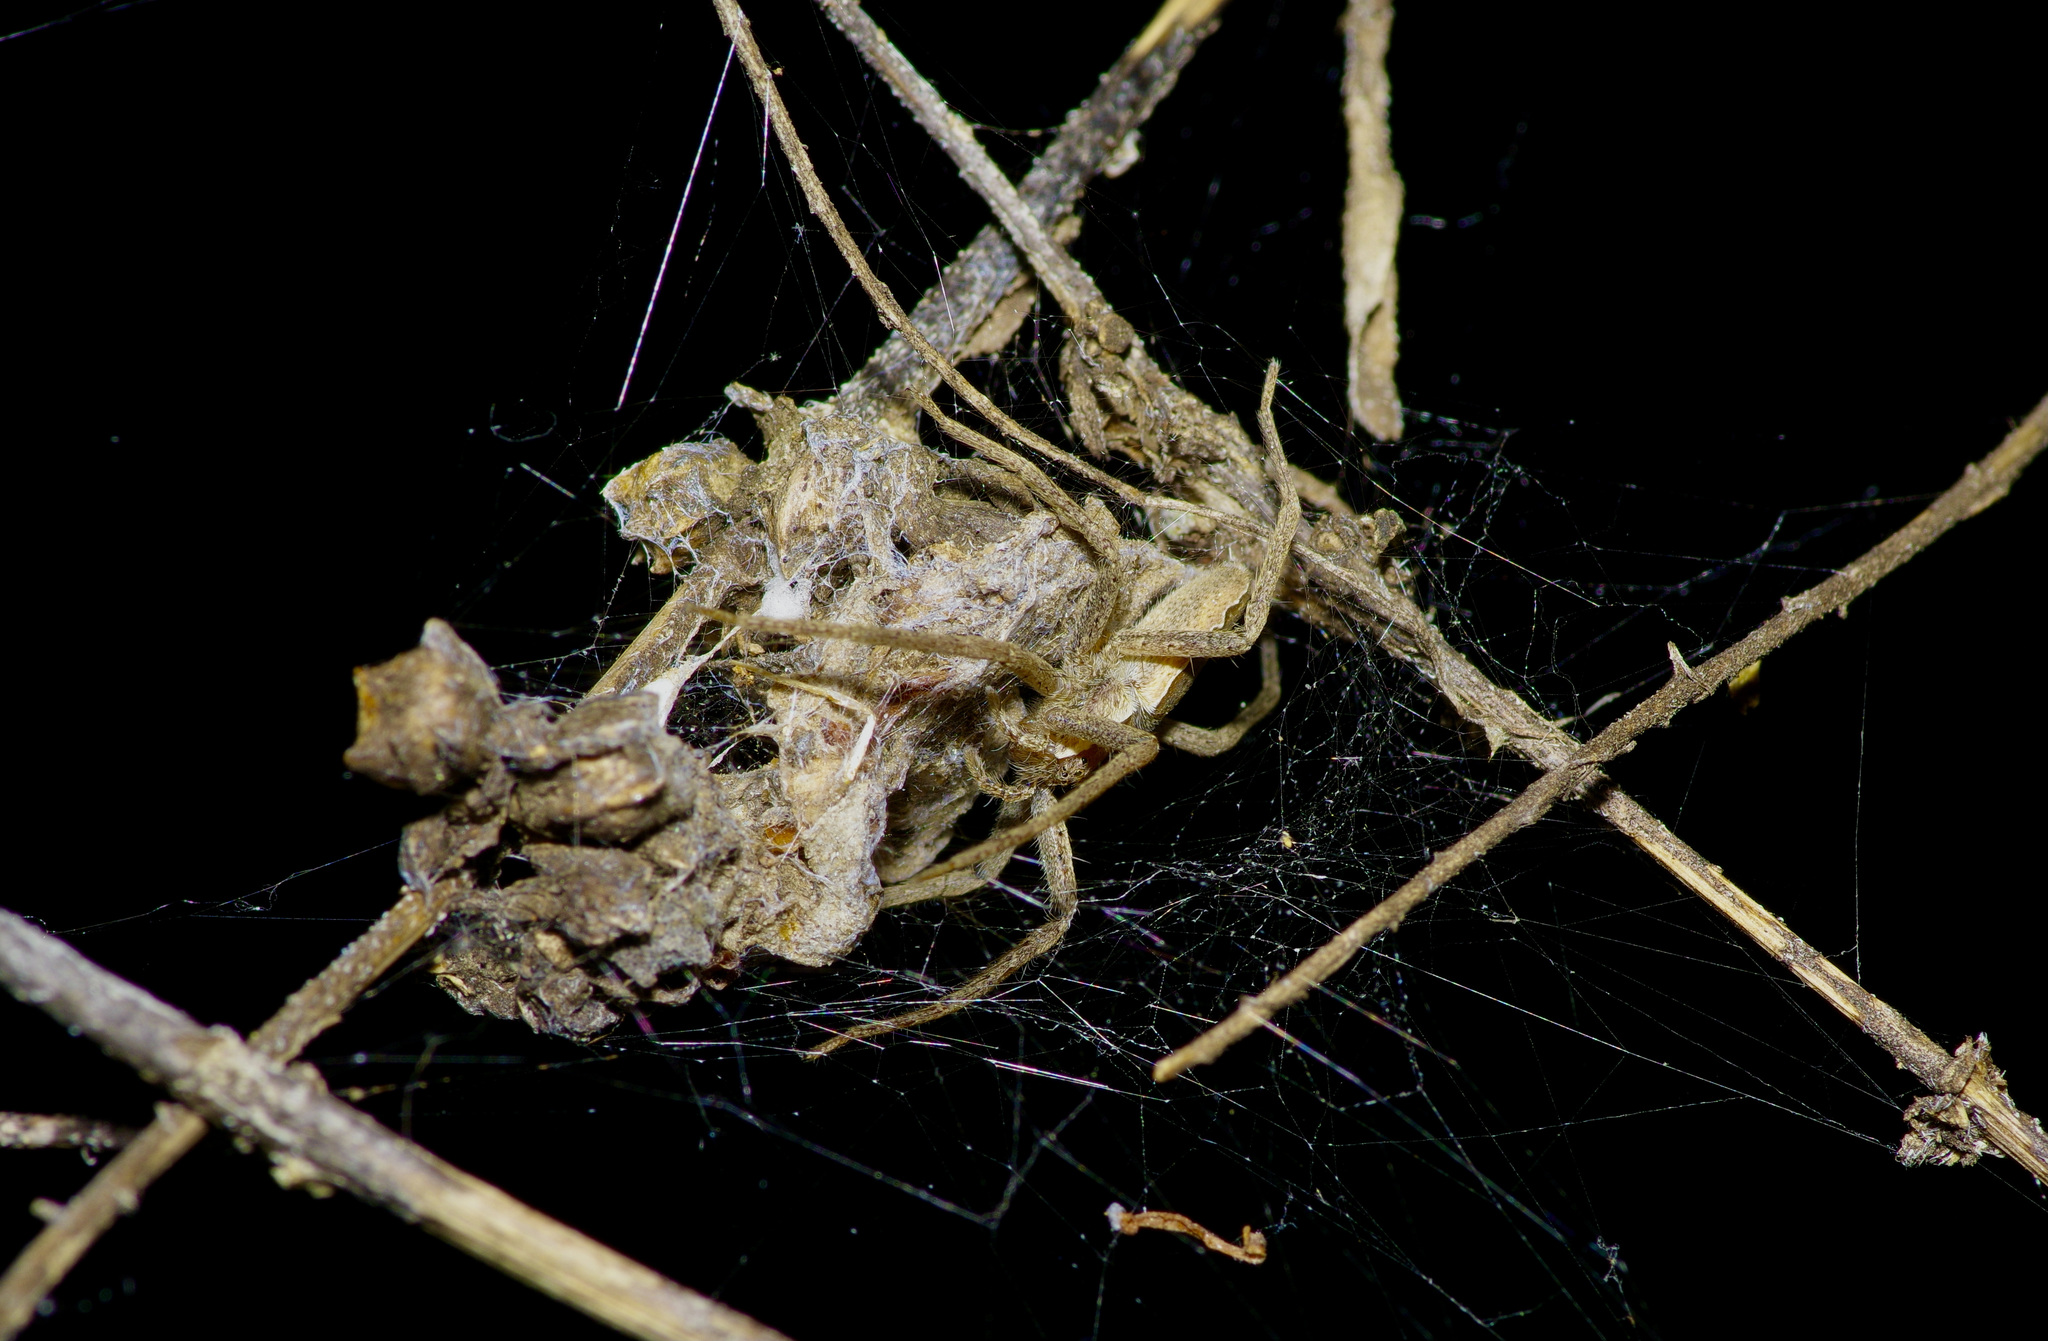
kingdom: Animalia
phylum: Arthropoda
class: Arachnida
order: Araneae
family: Pisauridae
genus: Pisaurina
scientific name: Pisaurina mira
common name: American nursery web spider
